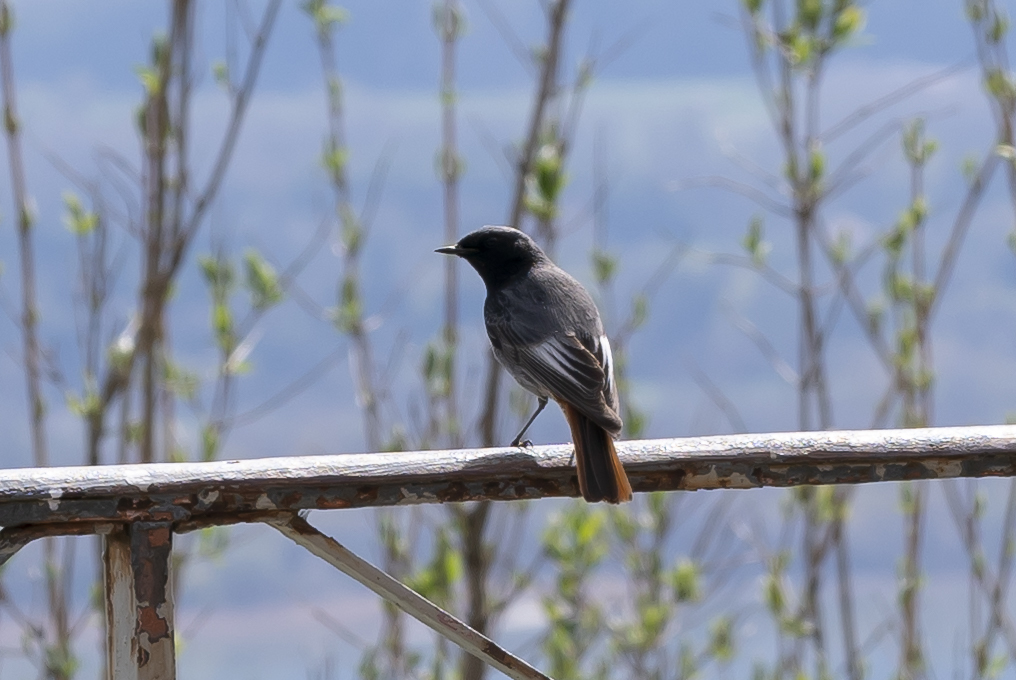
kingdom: Animalia
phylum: Chordata
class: Aves
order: Passeriformes
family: Muscicapidae
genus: Phoenicurus
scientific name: Phoenicurus ochruros
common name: Black redstart
